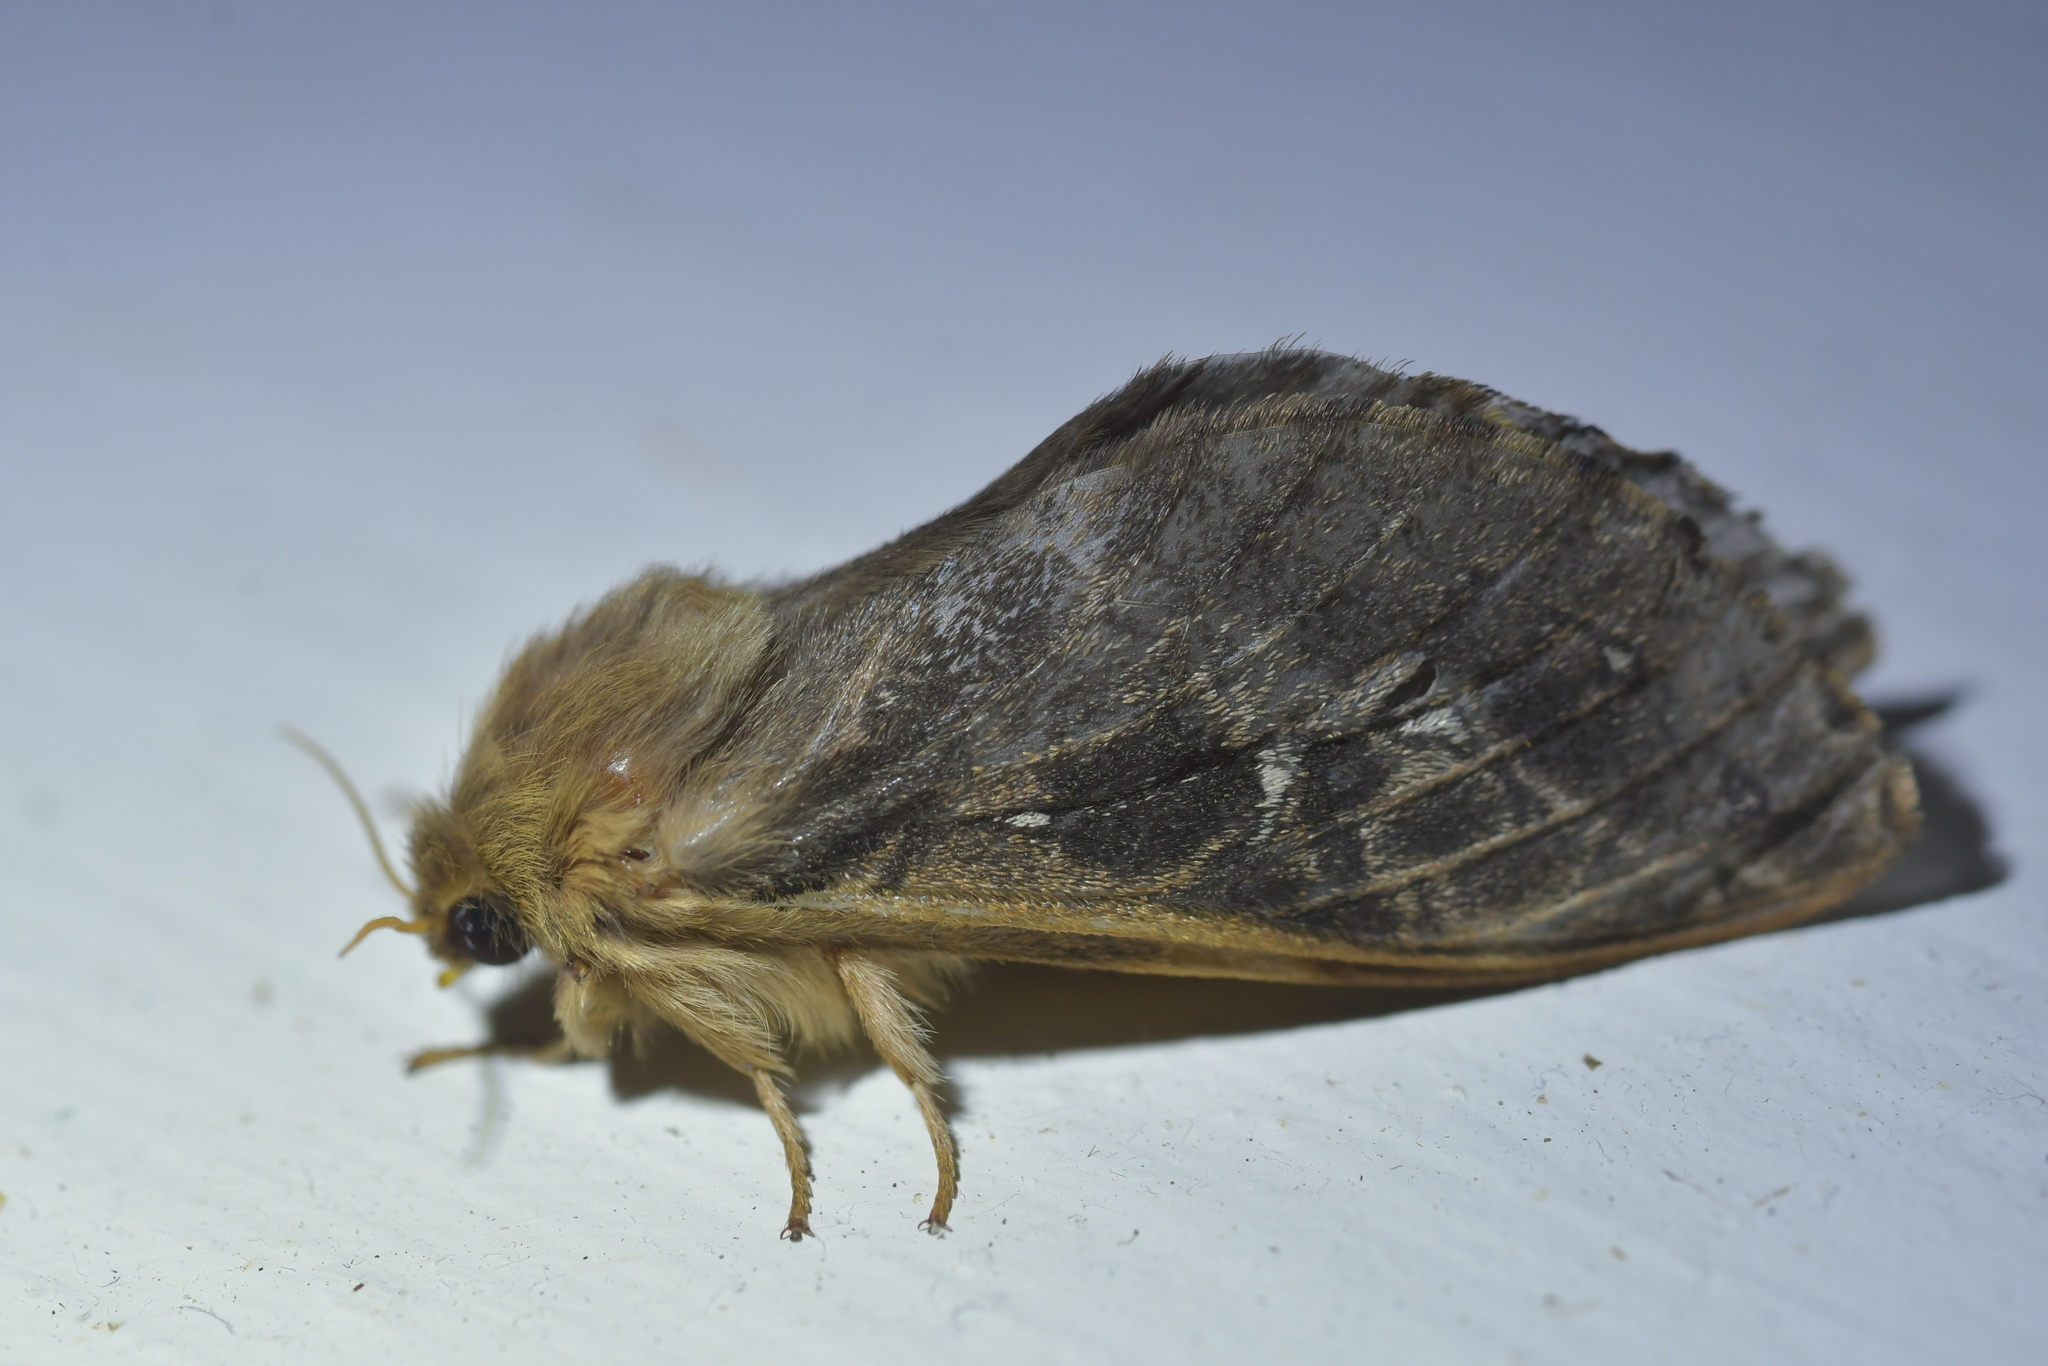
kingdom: Animalia
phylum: Arthropoda
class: Insecta
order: Lepidoptera
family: Hepialidae
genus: Wiseana
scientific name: Wiseana cervinata
